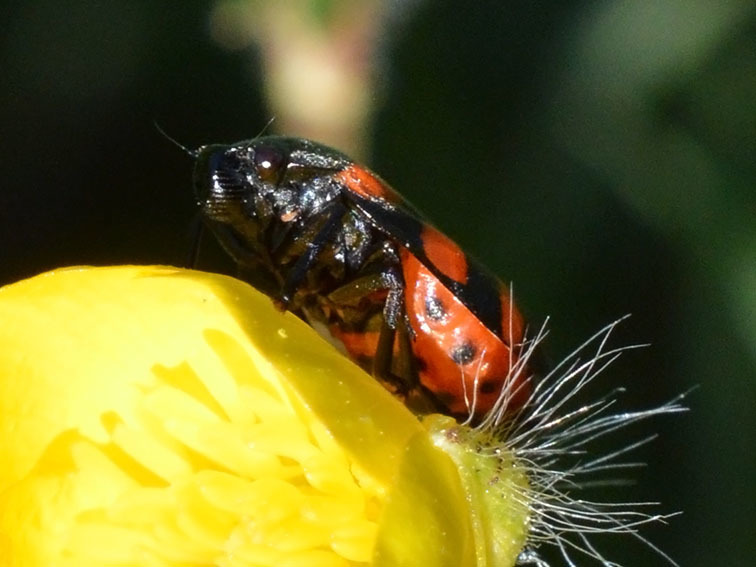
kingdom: Animalia
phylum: Arthropoda
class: Insecta
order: Hemiptera
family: Cercopidae
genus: Cercopis
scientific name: Cercopis sanguinolenta
